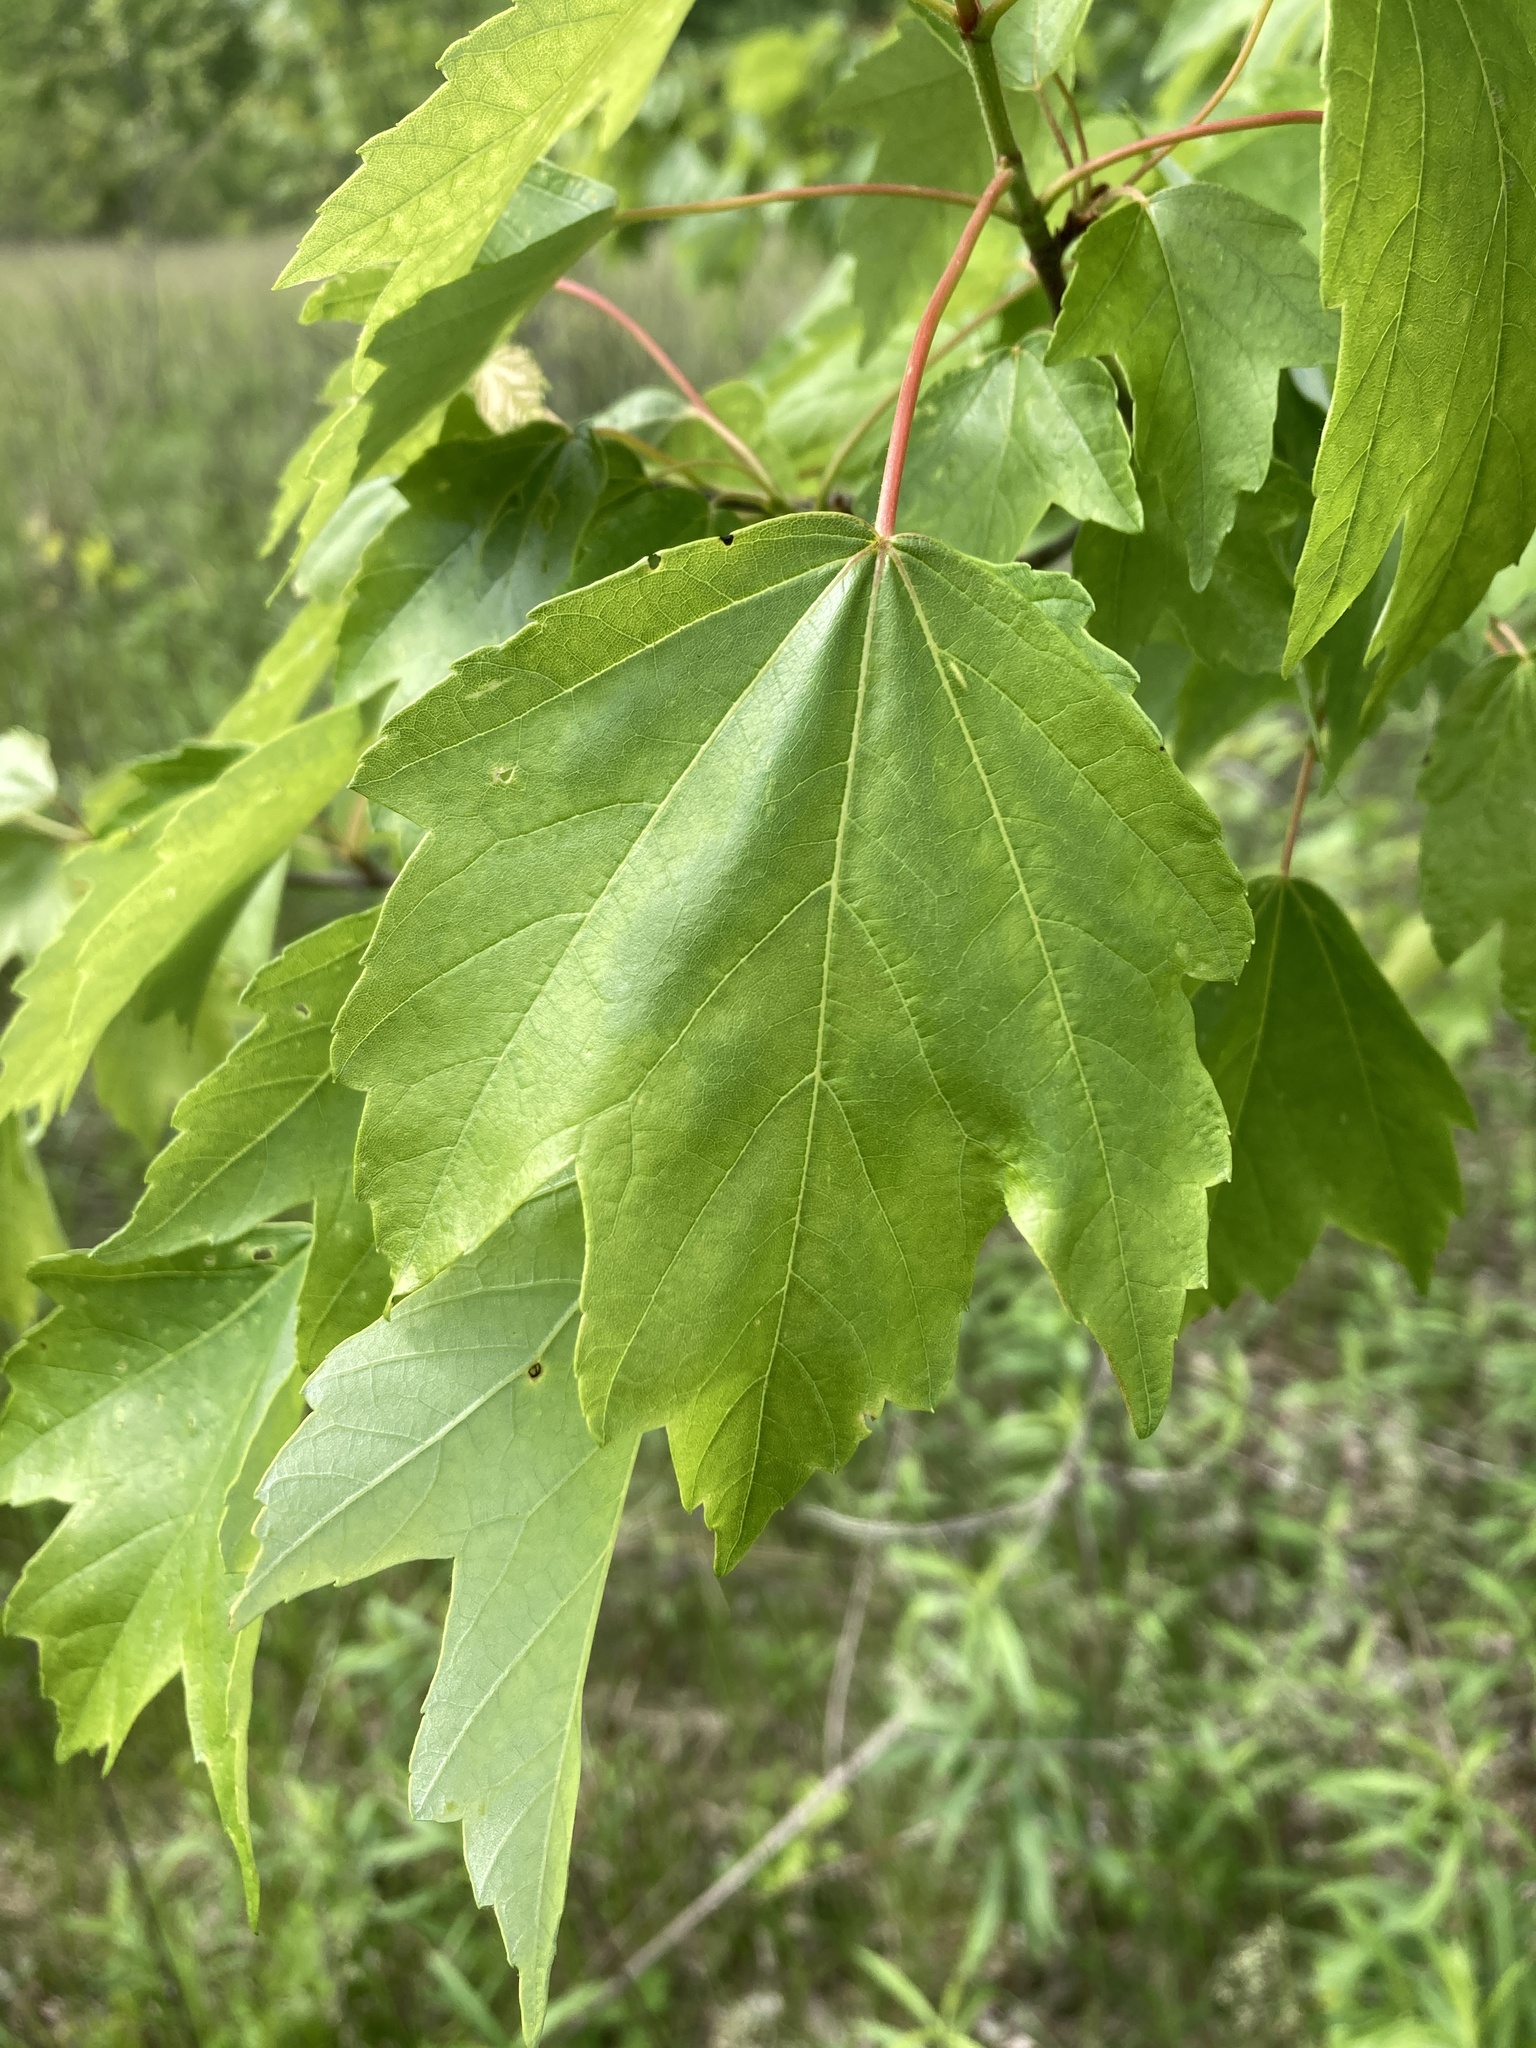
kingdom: Plantae
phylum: Tracheophyta
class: Magnoliopsida
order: Sapindales
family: Sapindaceae
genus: Acer
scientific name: Acer rubrum
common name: Red maple
